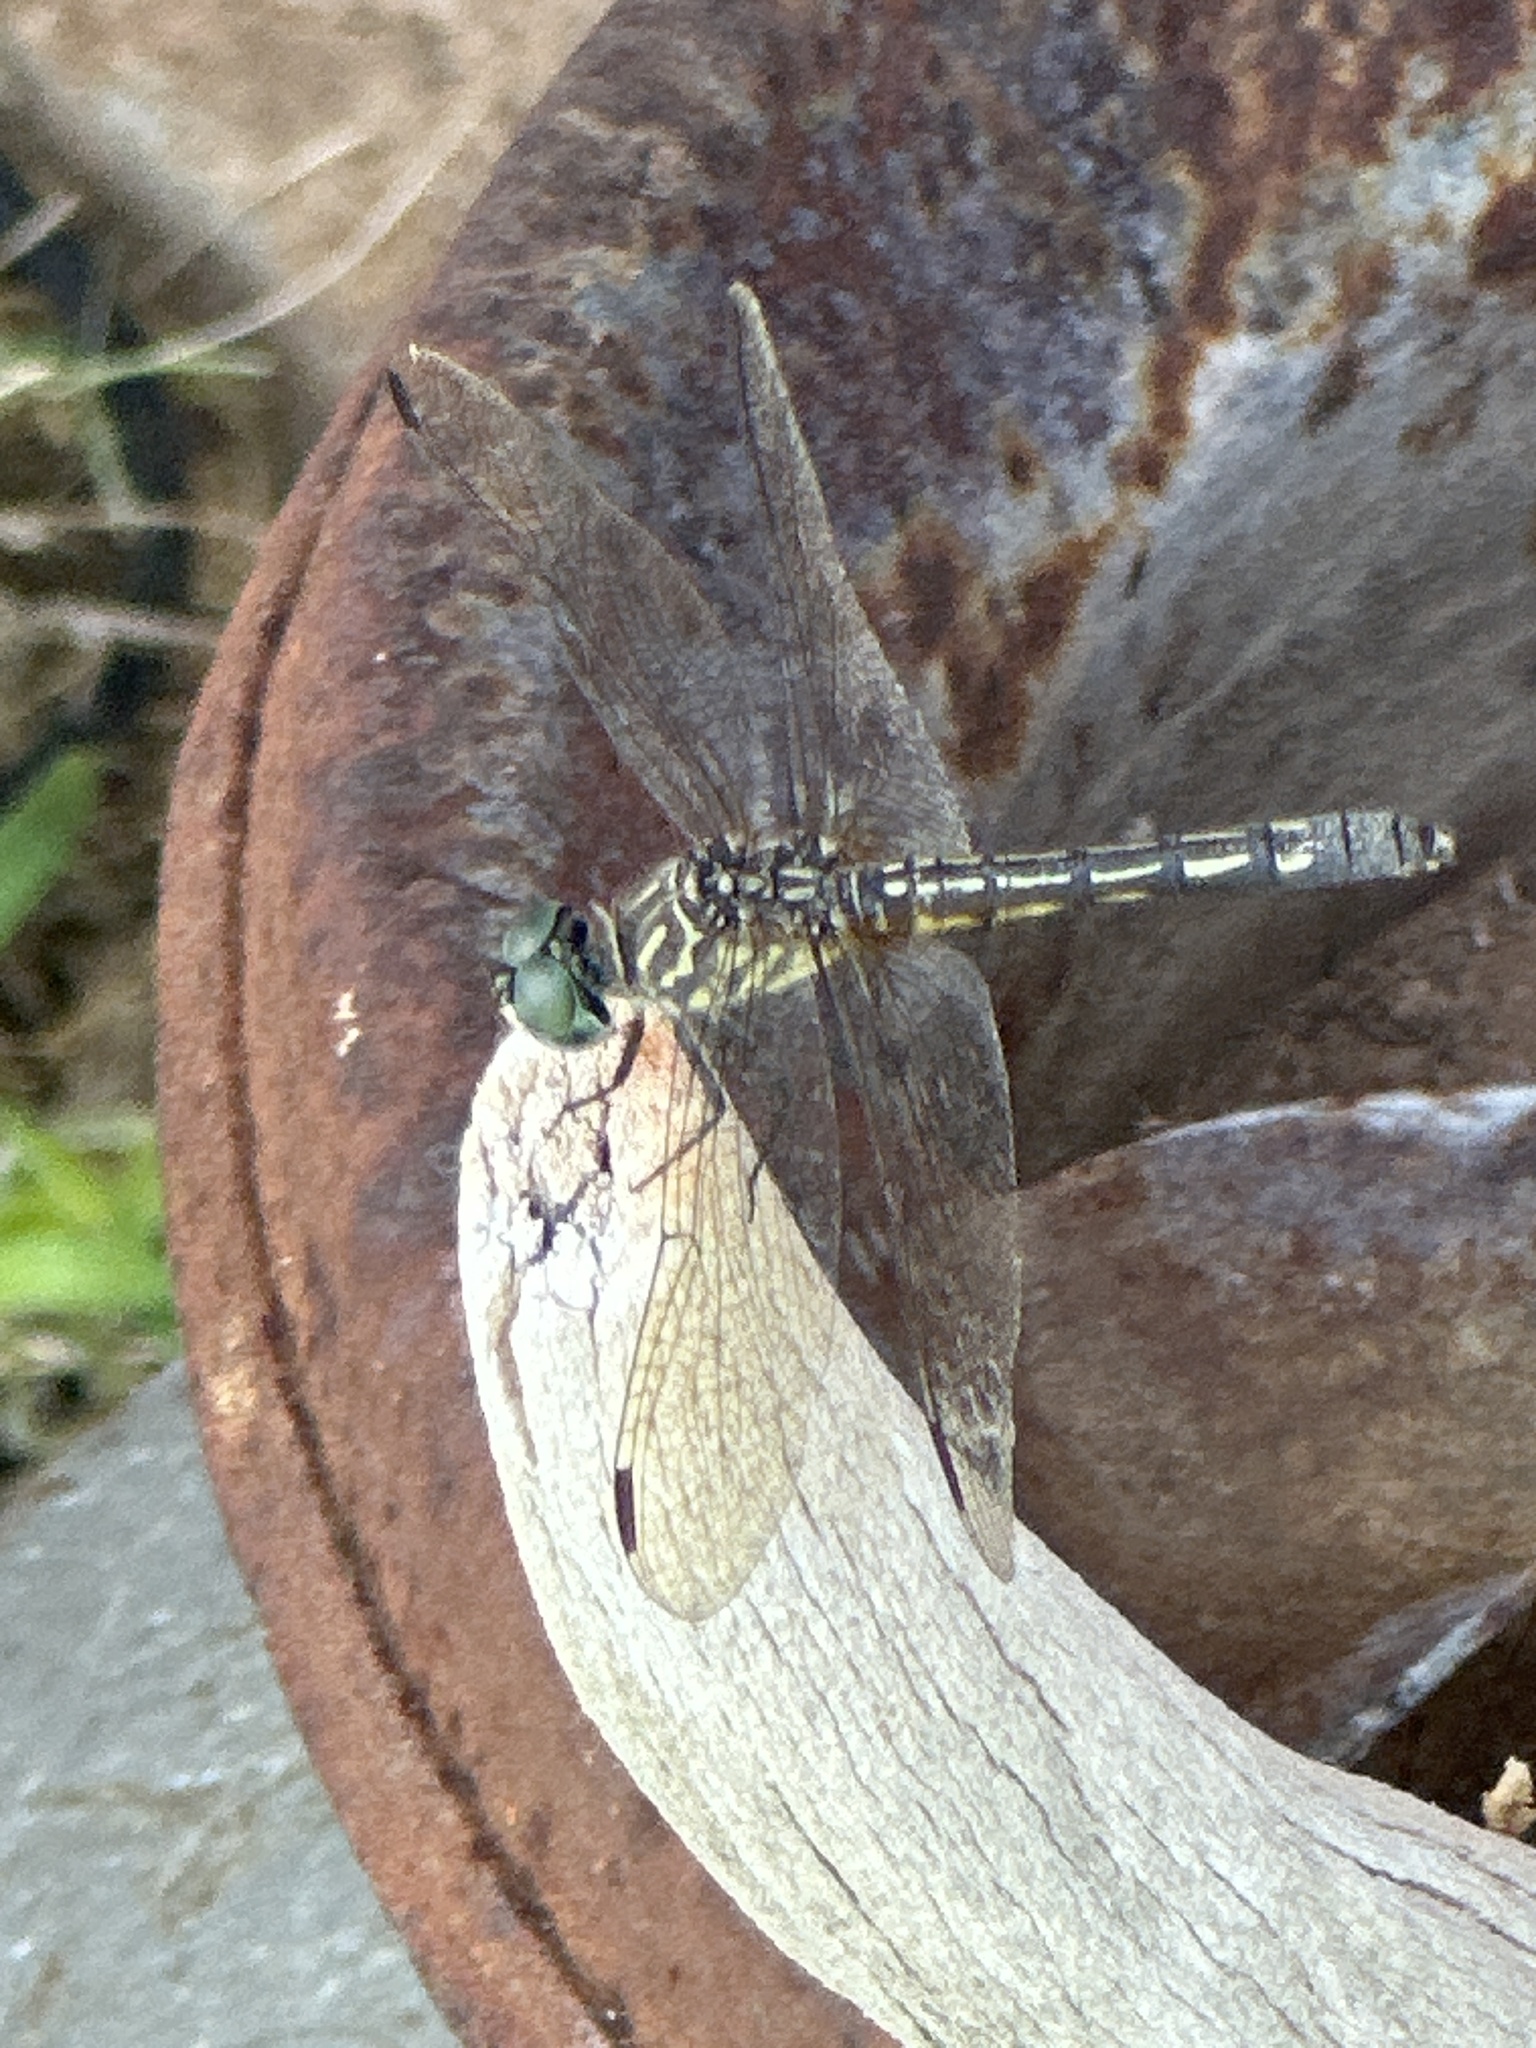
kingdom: Animalia
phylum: Arthropoda
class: Insecta
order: Odonata
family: Libellulidae
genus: Pachydiplax
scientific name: Pachydiplax longipennis
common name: Blue dasher
